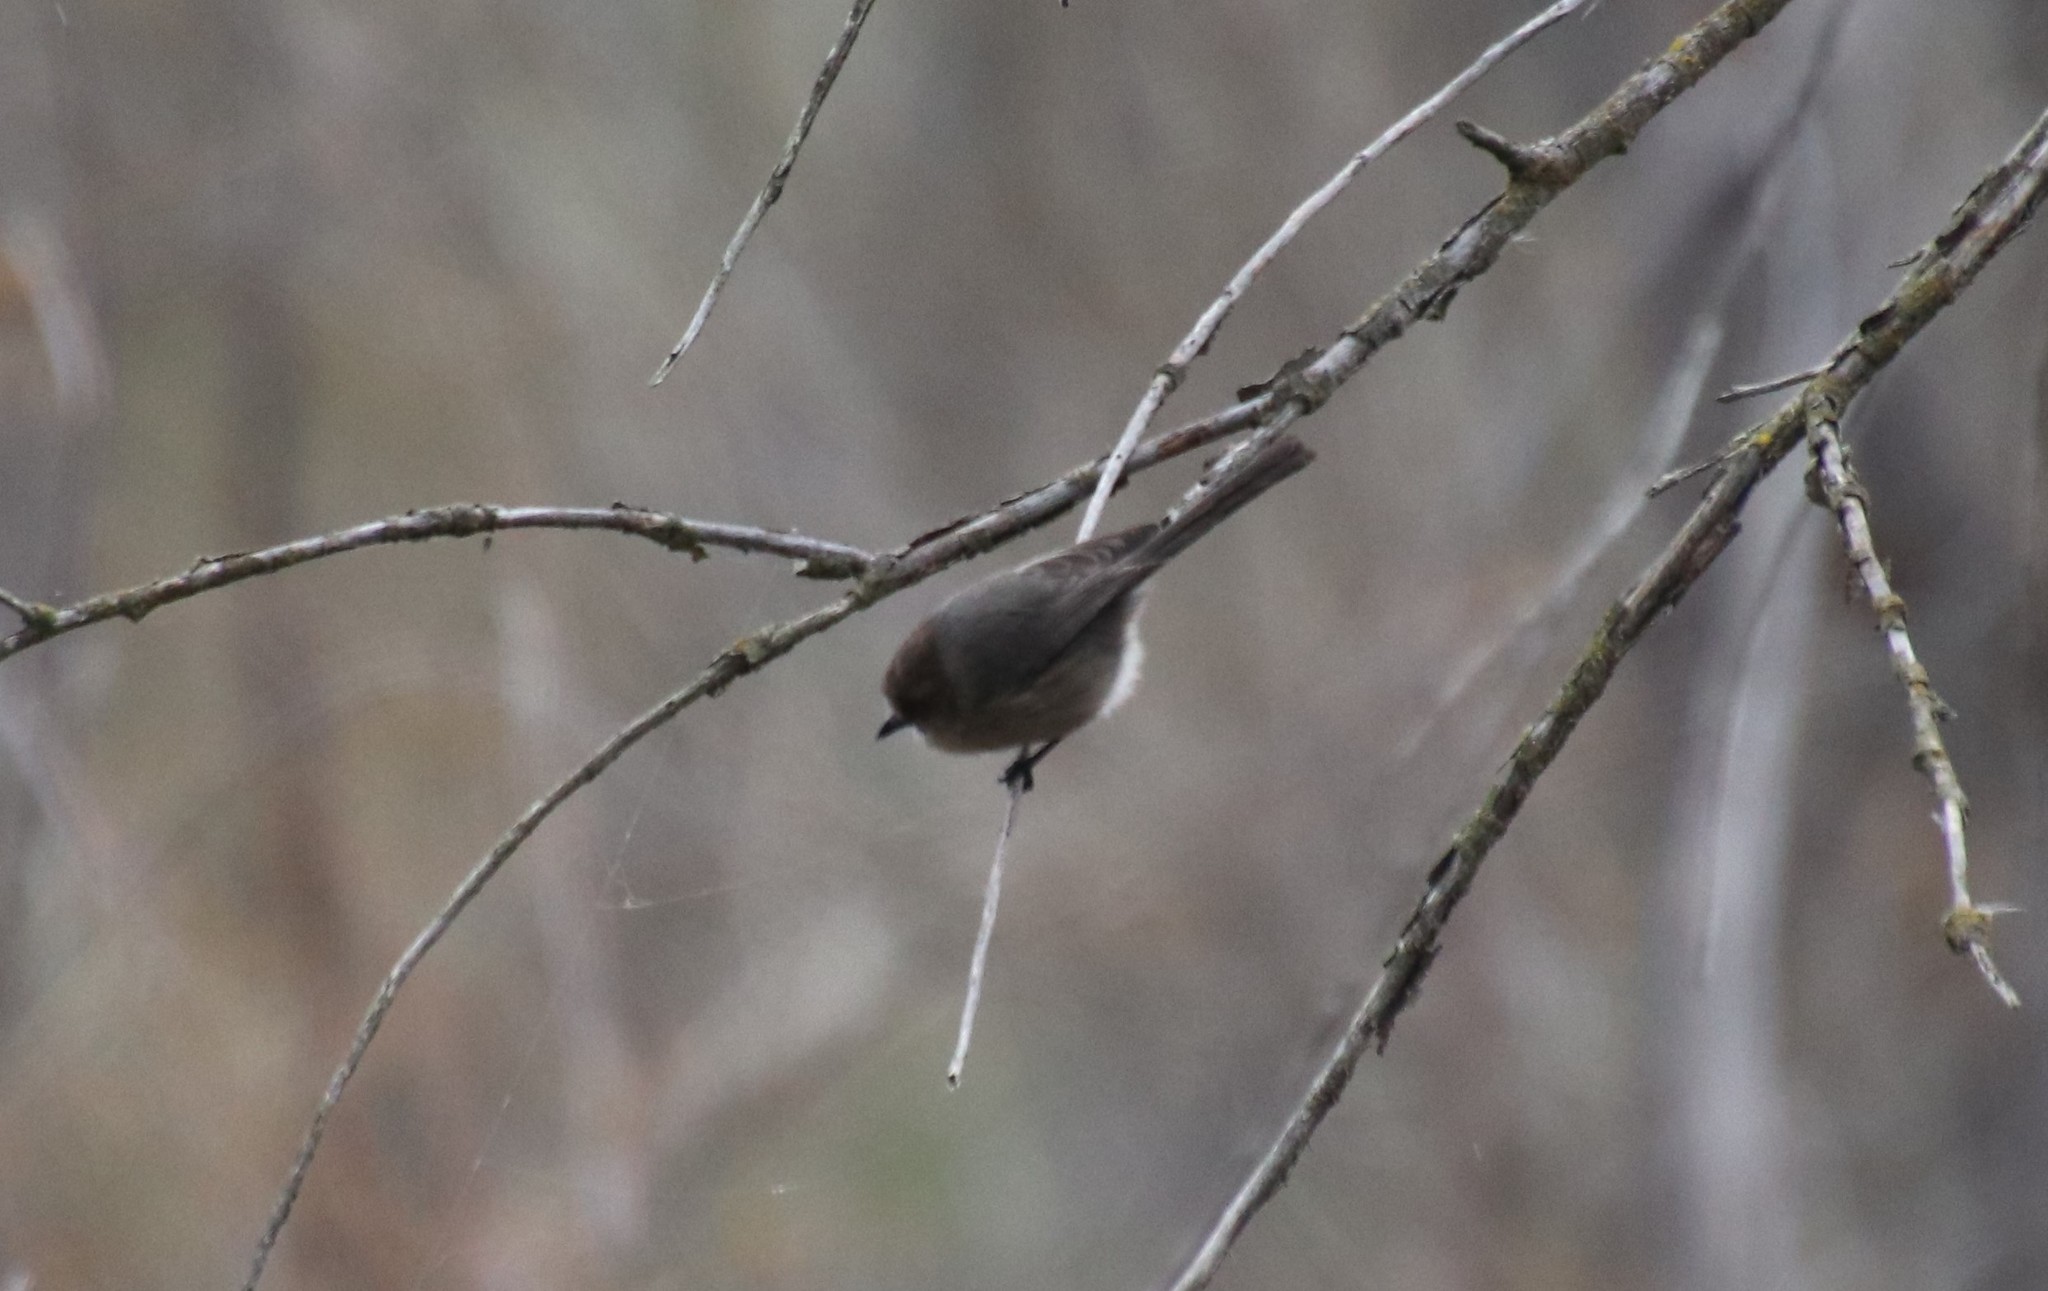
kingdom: Animalia
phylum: Chordata
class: Aves
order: Passeriformes
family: Aegithalidae
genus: Psaltriparus
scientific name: Psaltriparus minimus
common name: American bushtit
